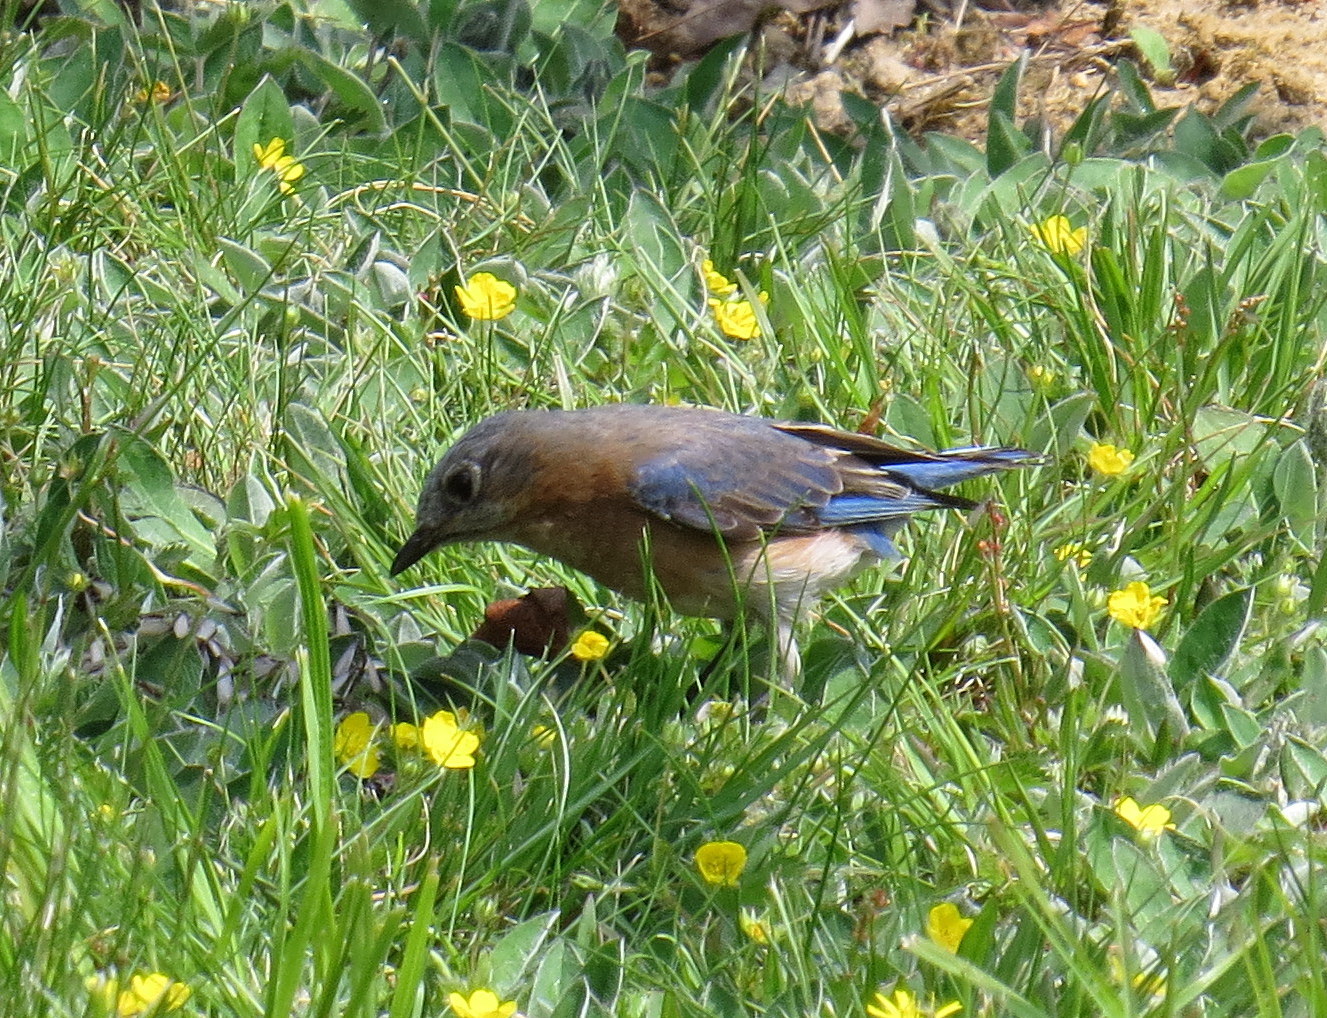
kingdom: Animalia
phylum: Chordata
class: Aves
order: Passeriformes
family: Turdidae
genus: Sialia
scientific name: Sialia sialis
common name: Eastern bluebird
